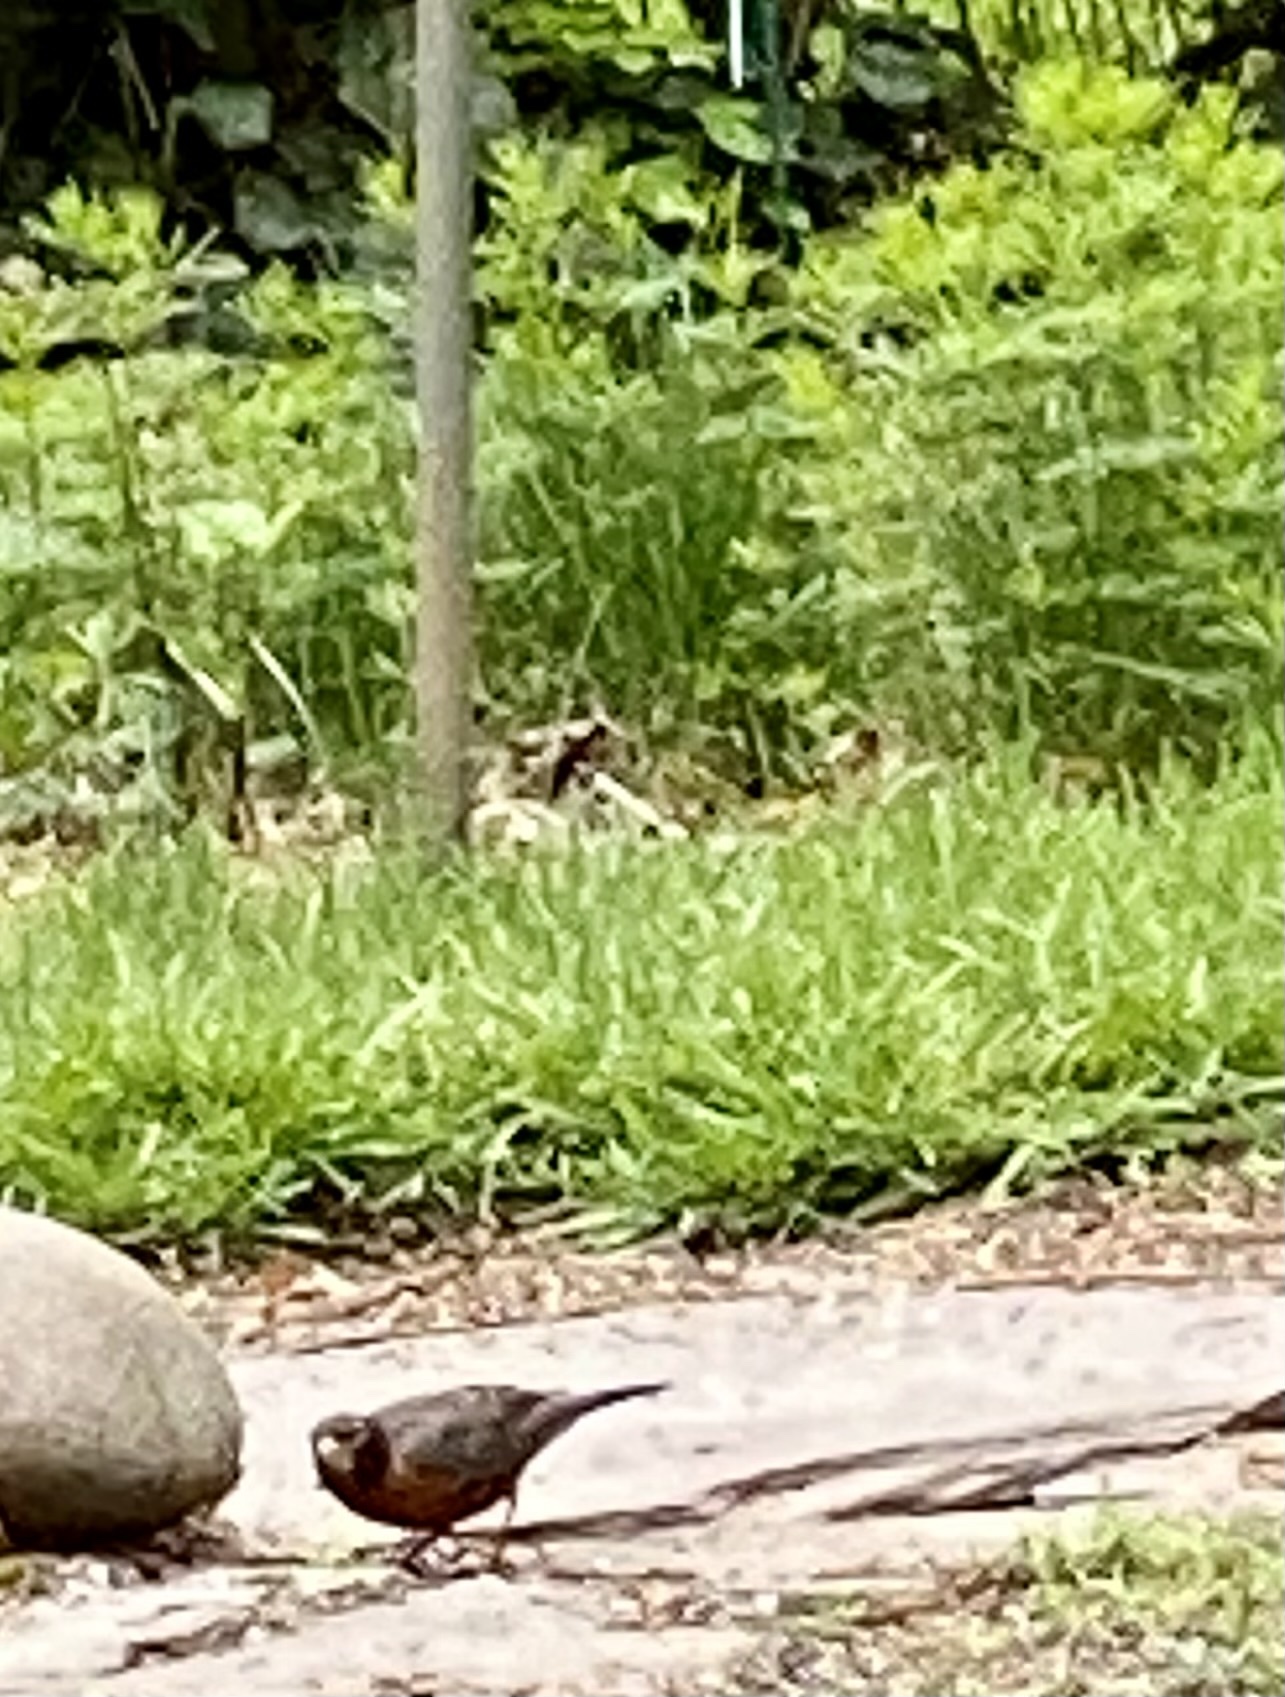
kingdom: Animalia
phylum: Chordata
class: Aves
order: Passeriformes
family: Turdidae
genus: Turdus
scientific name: Turdus migratorius
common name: American robin
